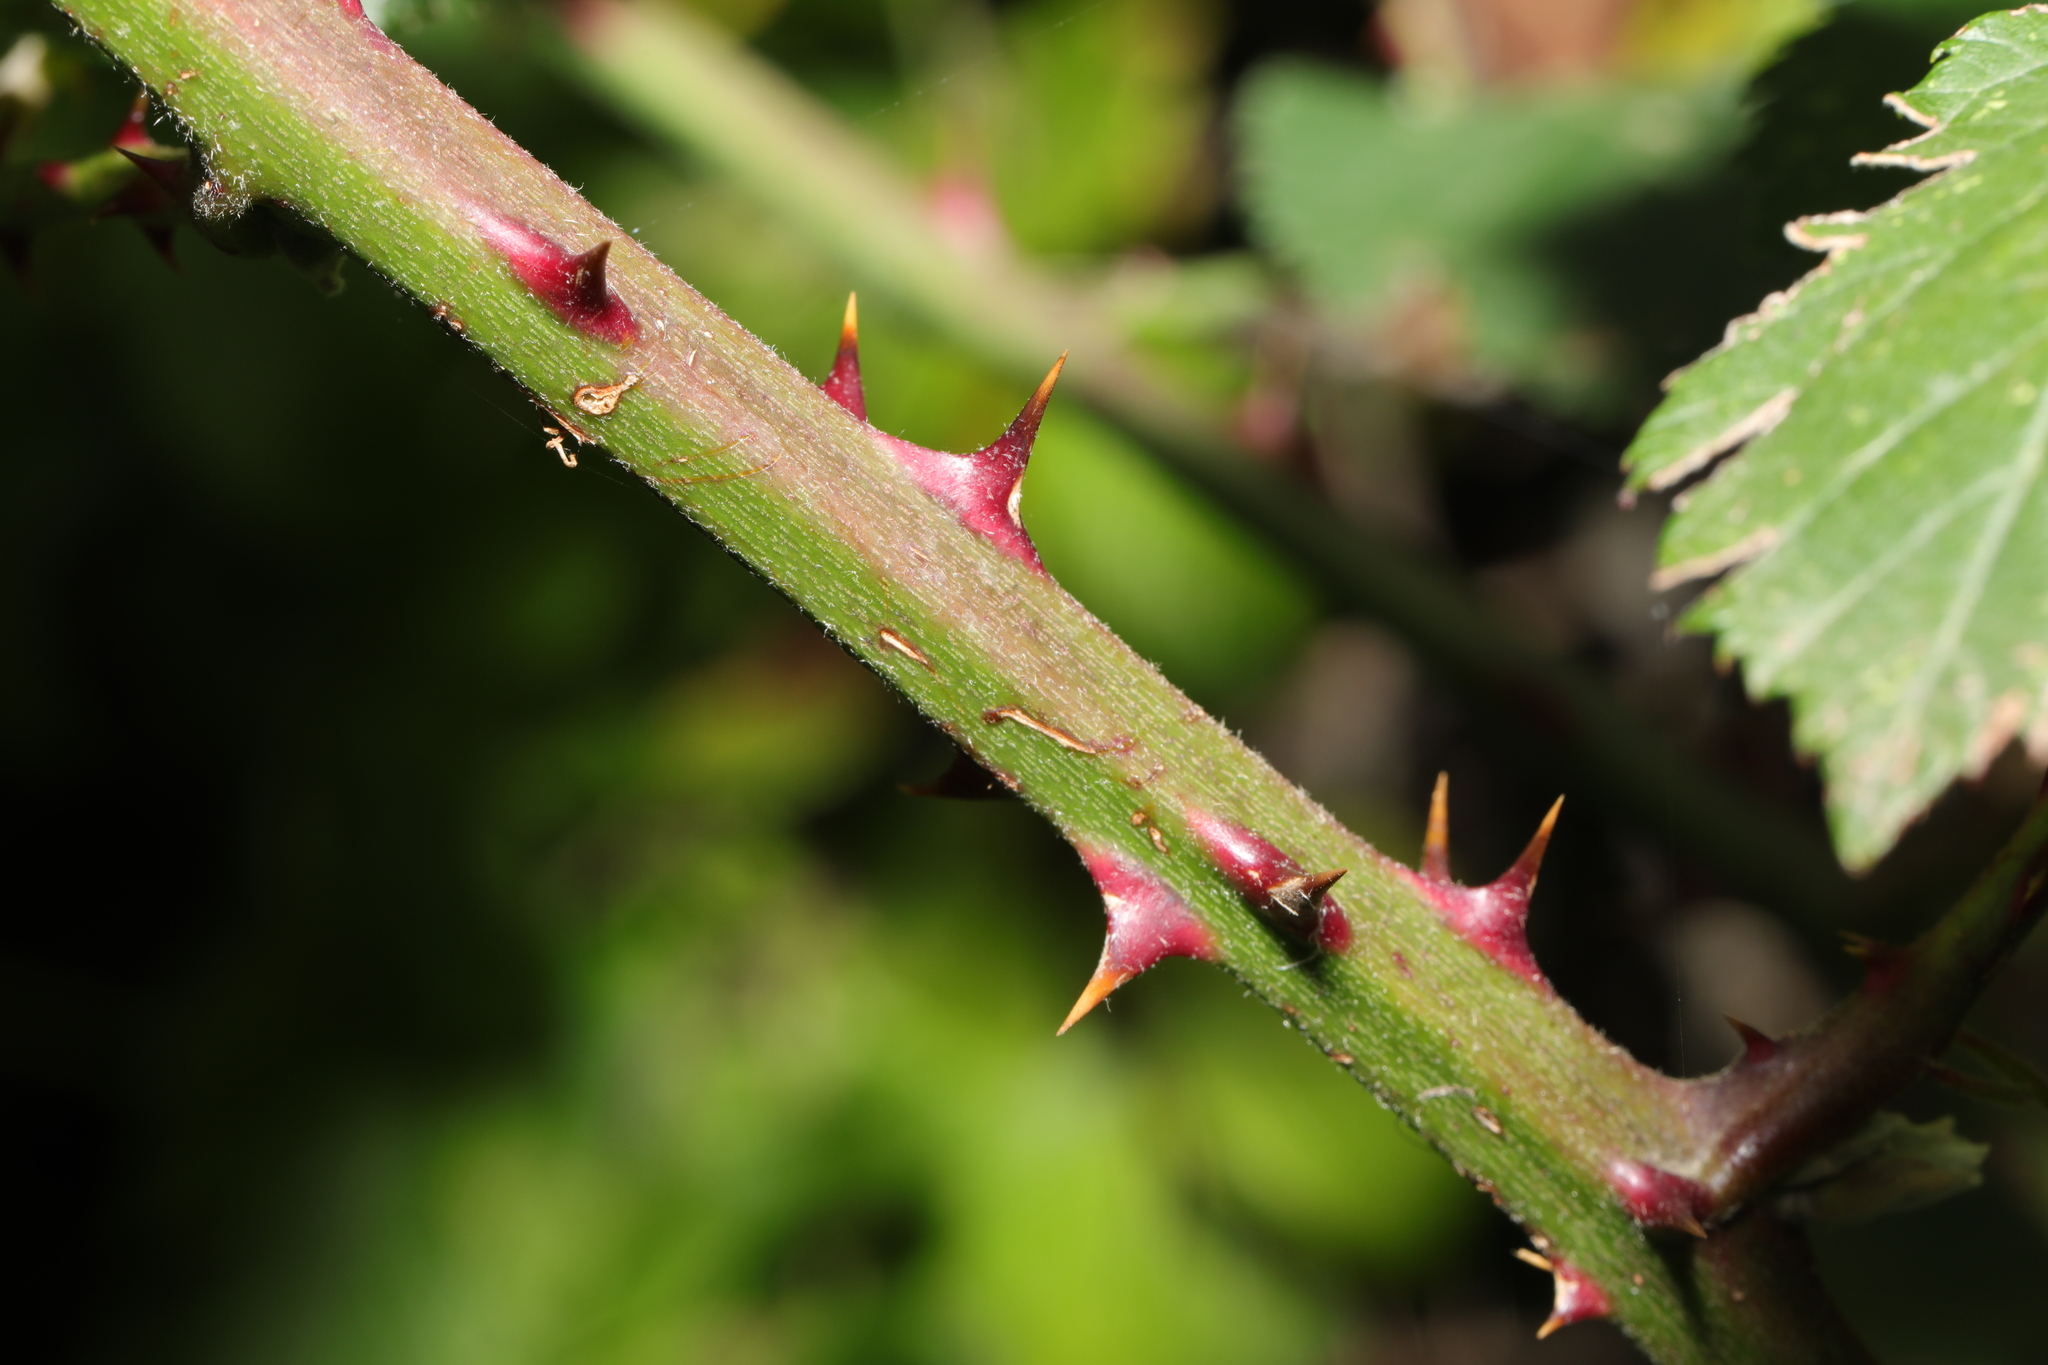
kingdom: Plantae
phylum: Tracheophyta
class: Magnoliopsida
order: Rosales
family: Rosaceae
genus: Rubus
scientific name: Rubus armeniacus
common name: Himalayan blackberry
